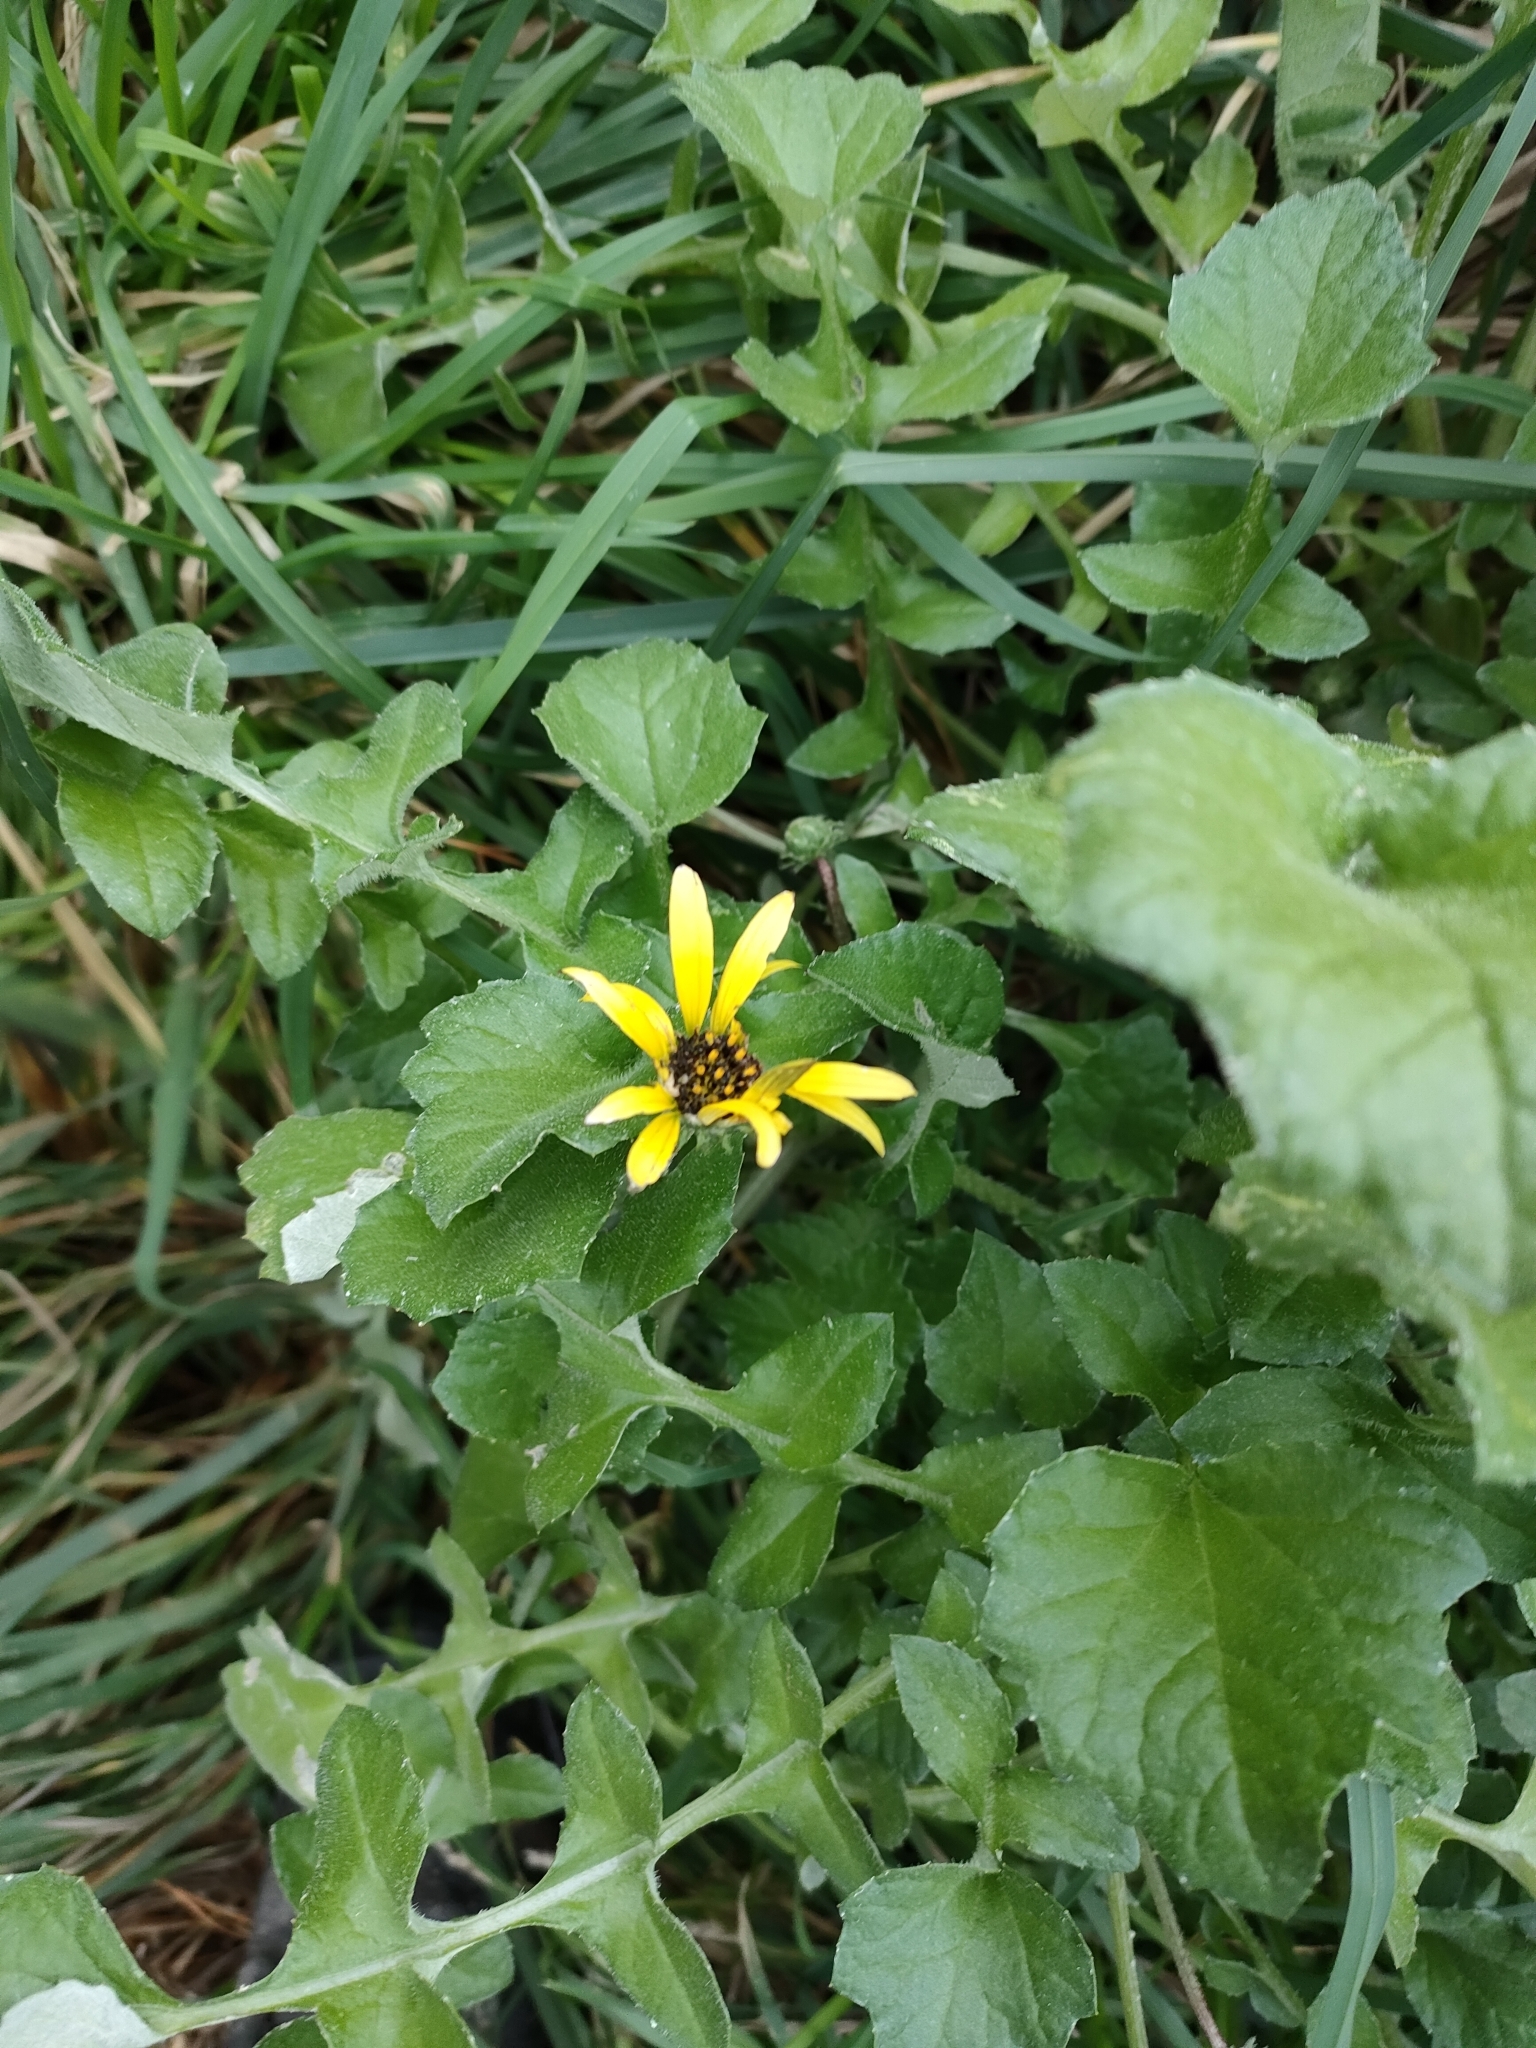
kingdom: Plantae
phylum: Tracheophyta
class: Magnoliopsida
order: Asterales
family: Asteraceae
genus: Arctotheca
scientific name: Arctotheca calendula
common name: Capeweed
